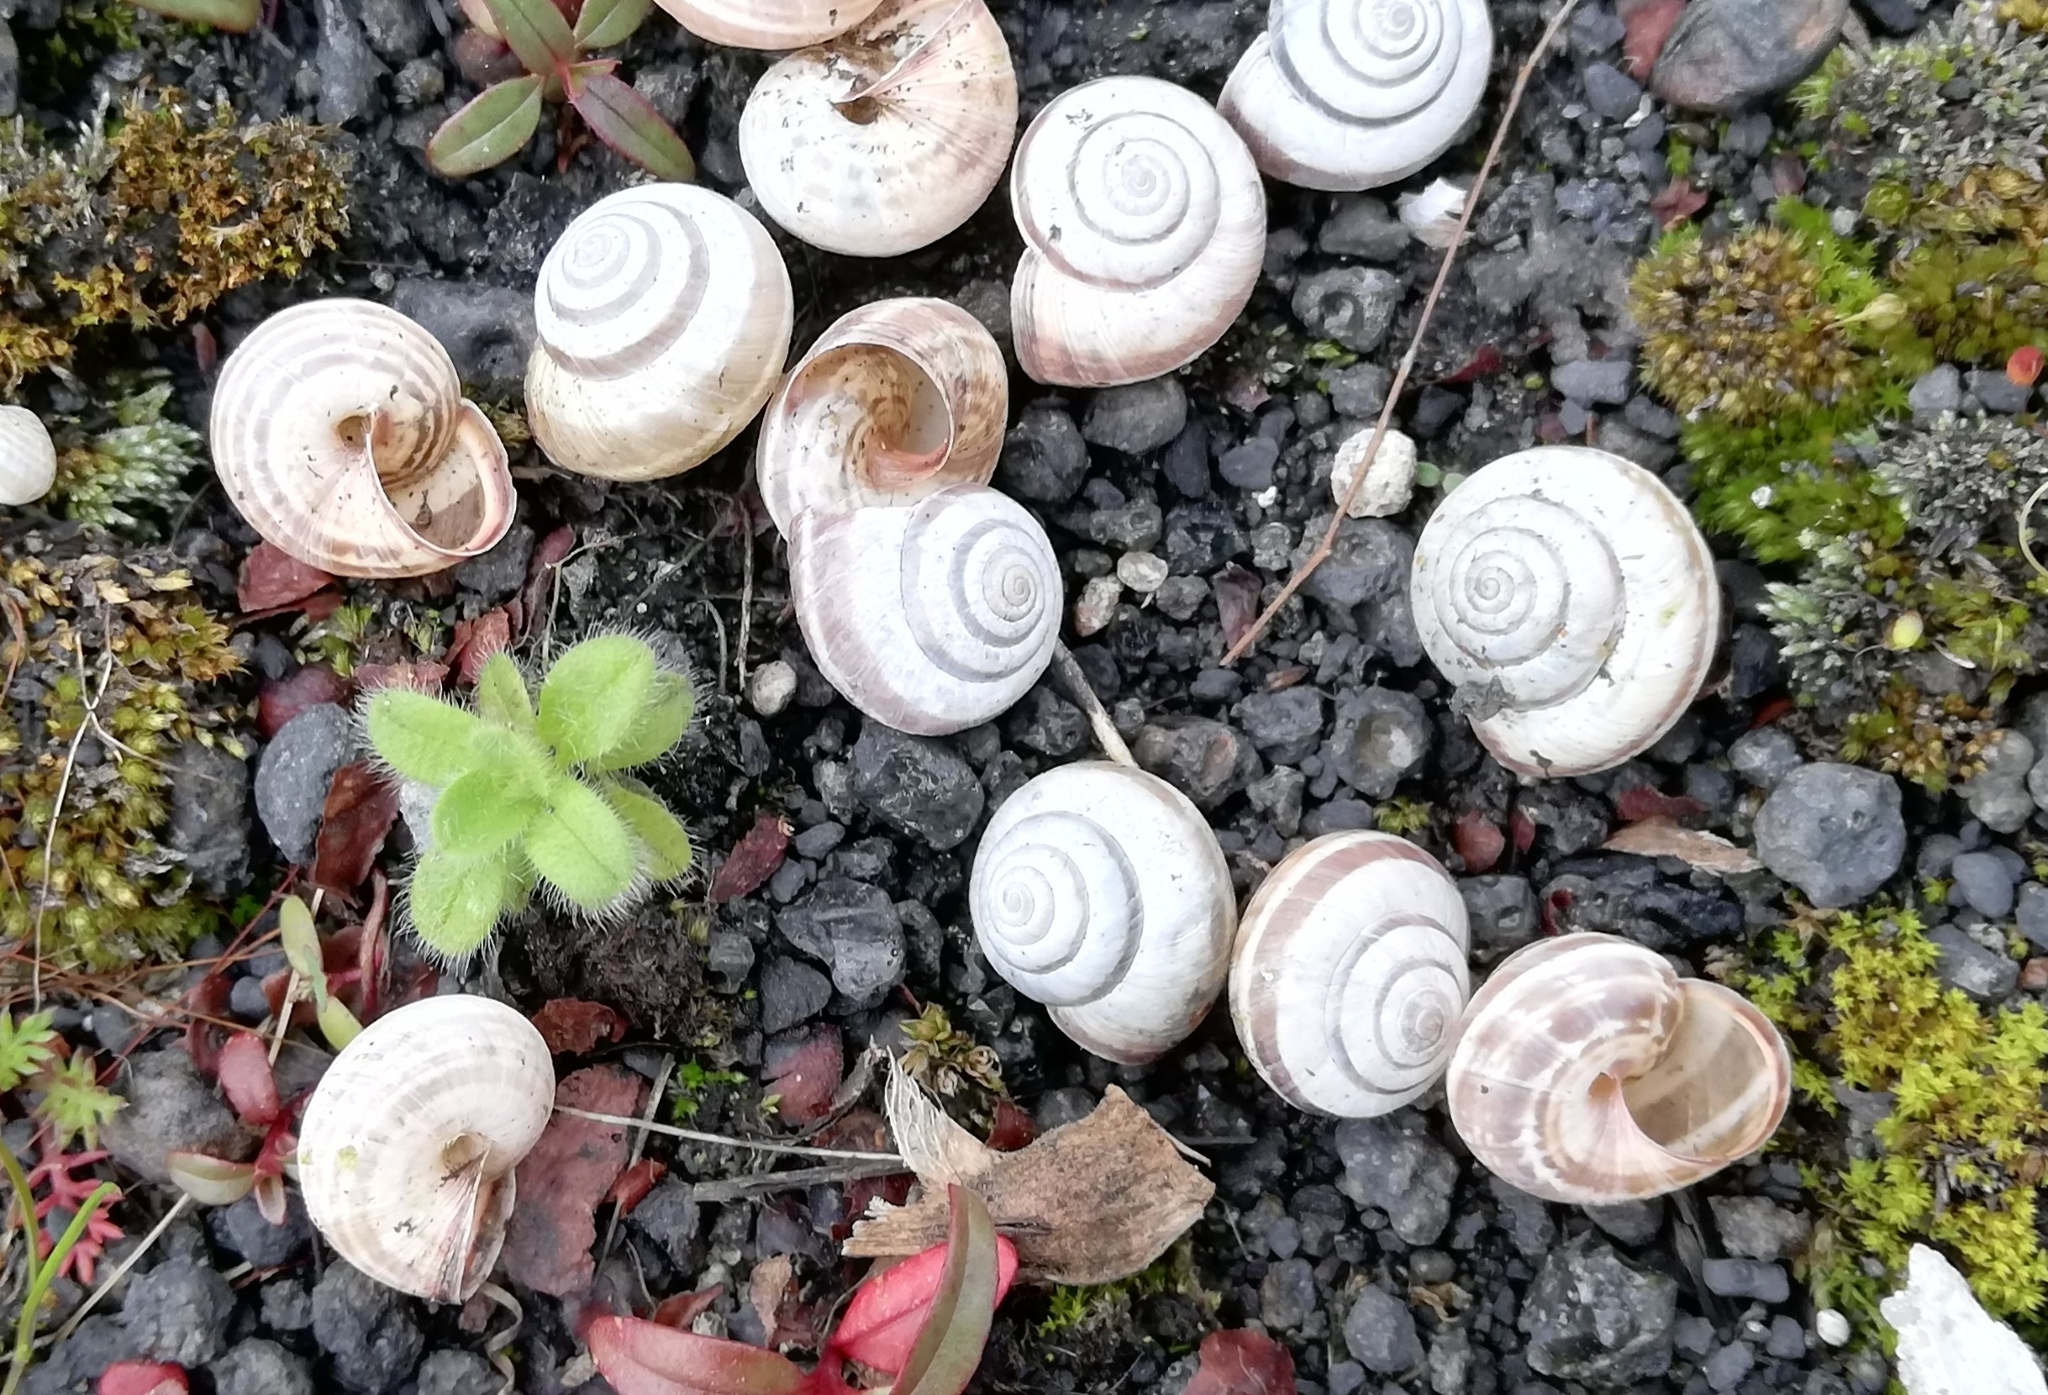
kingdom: Animalia
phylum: Mollusca
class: Gastropoda
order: Stylommatophora
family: Geomitridae
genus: Cernuella
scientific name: Cernuella virgata
